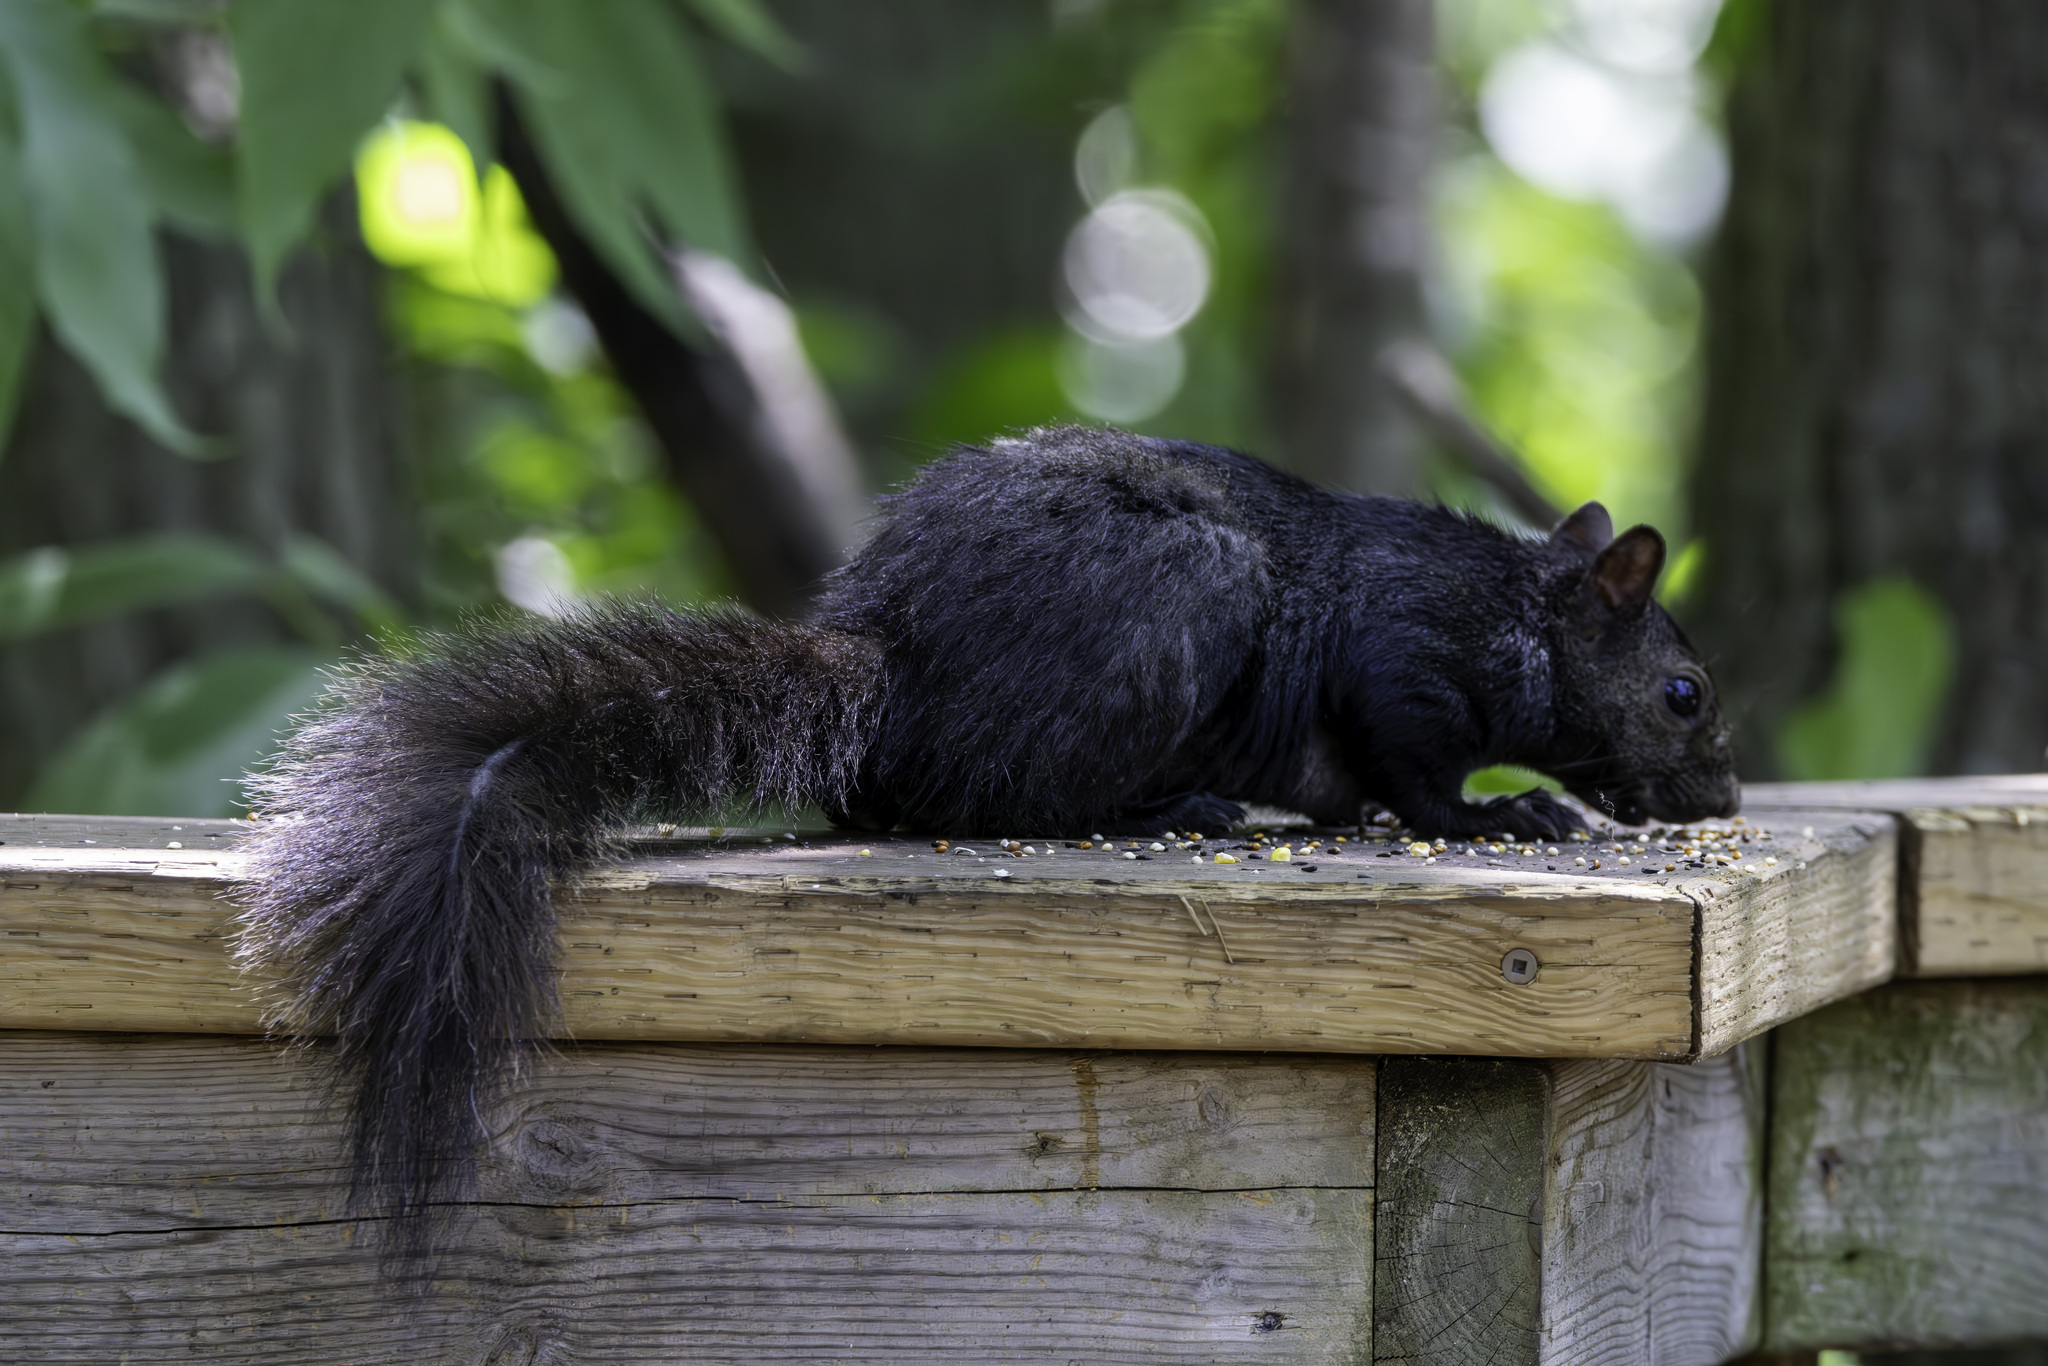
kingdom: Animalia
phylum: Chordata
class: Mammalia
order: Rodentia
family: Sciuridae
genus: Sciurus
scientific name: Sciurus carolinensis
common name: Eastern gray squirrel
